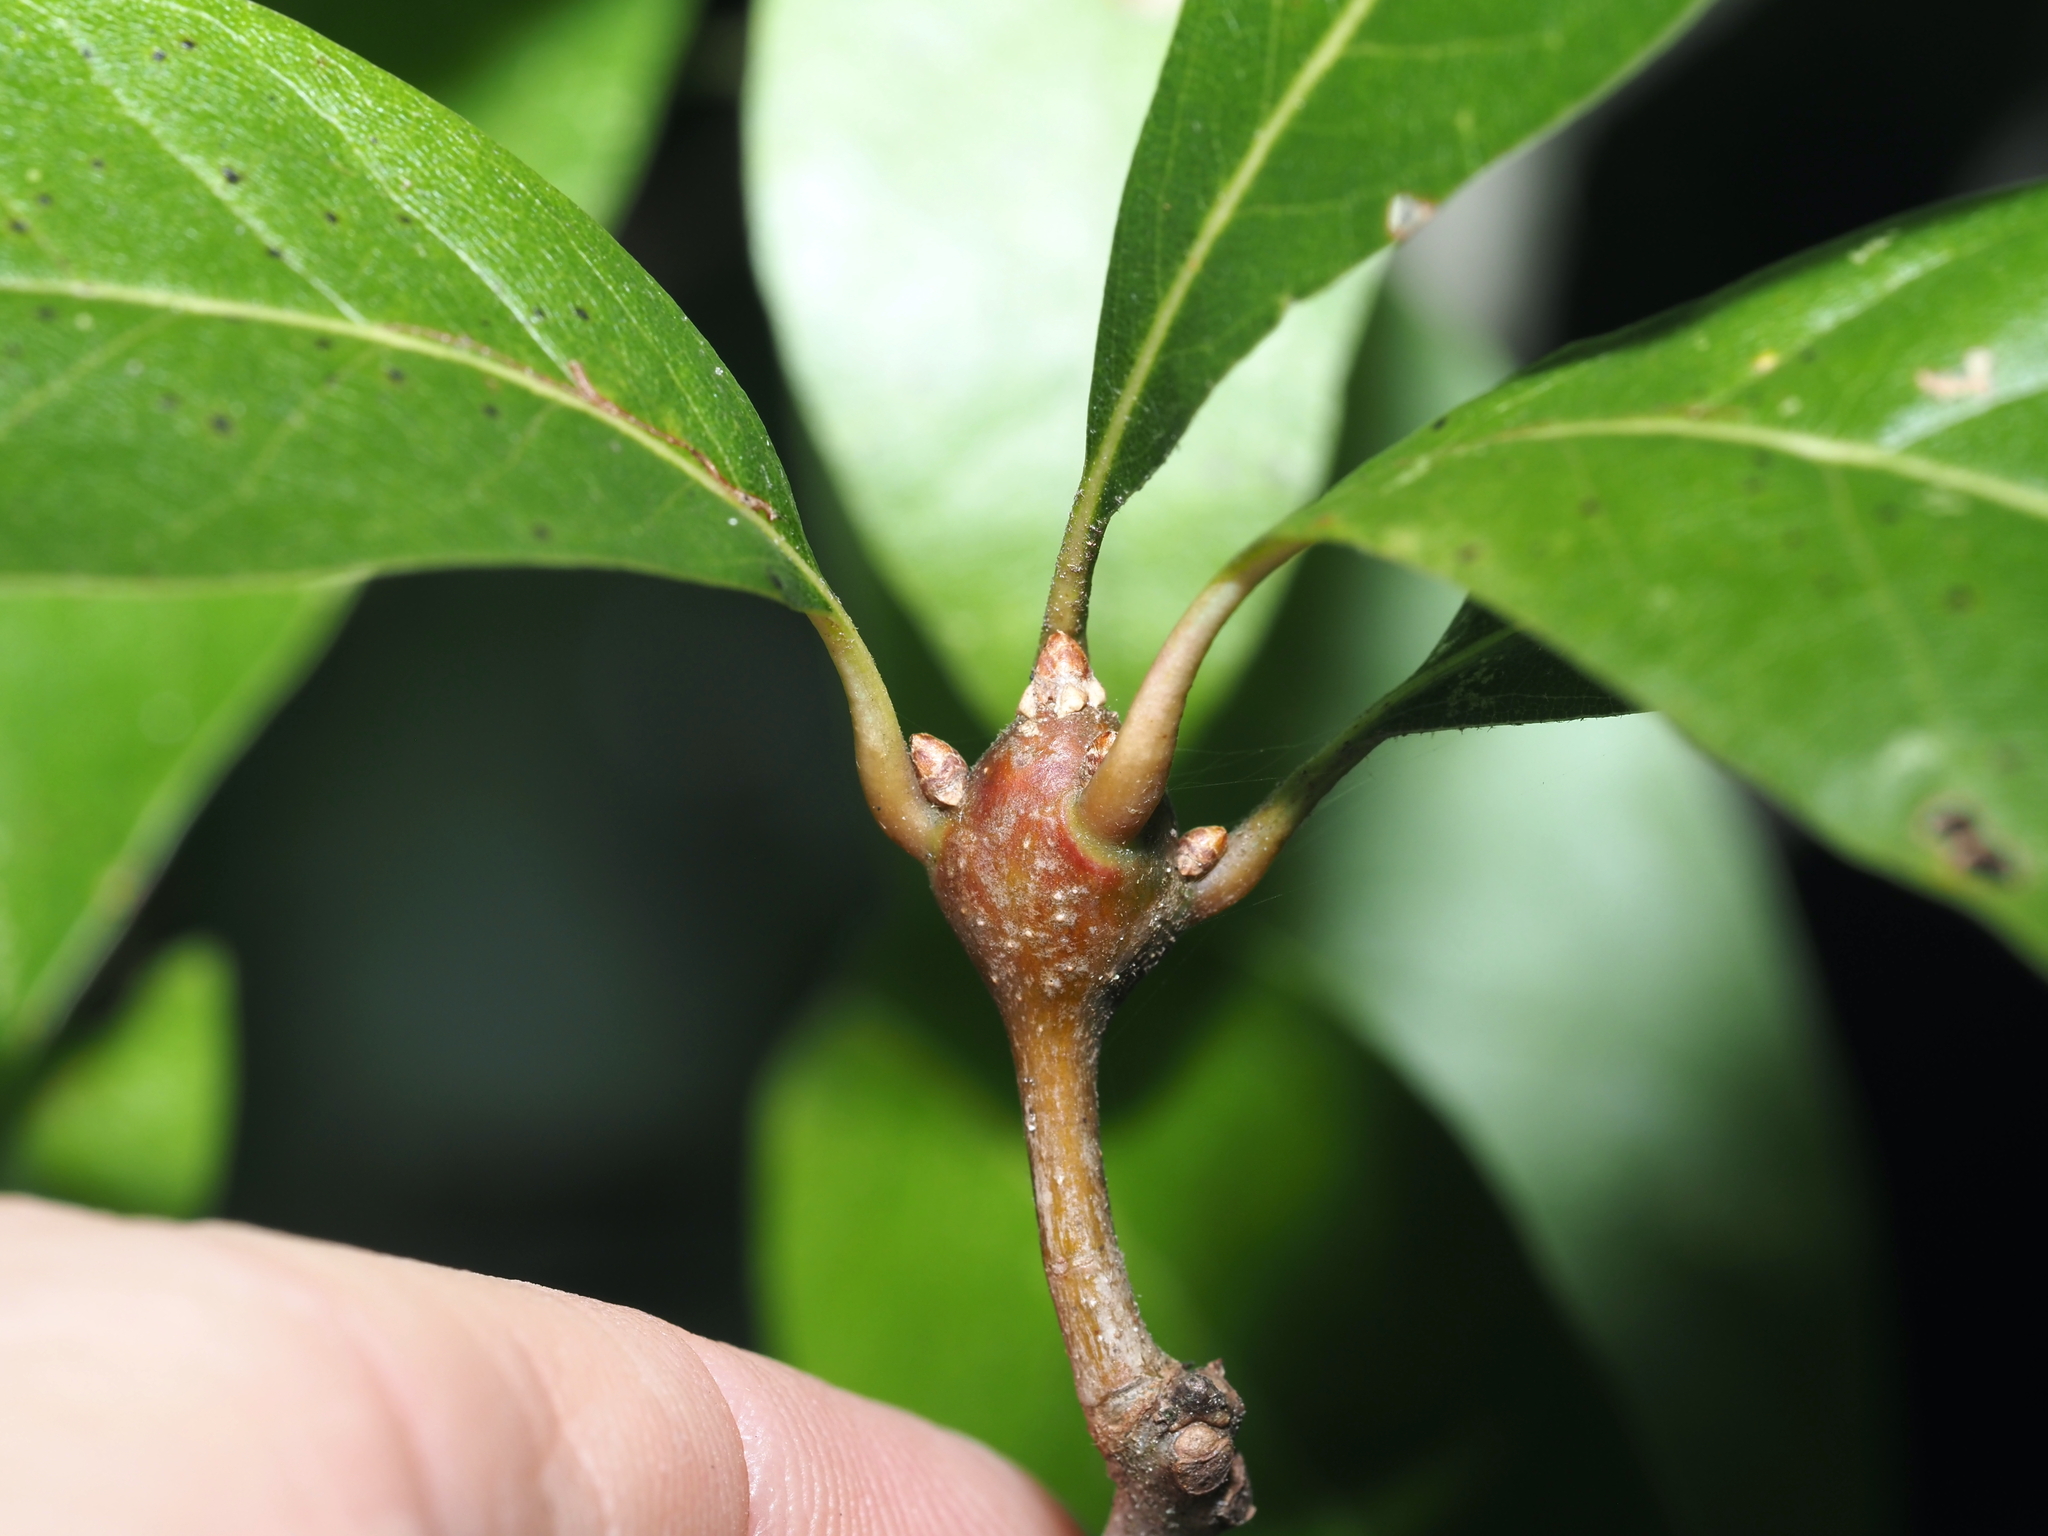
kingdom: Animalia
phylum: Arthropoda
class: Insecta
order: Hymenoptera
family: Cynipidae
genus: Zapatella
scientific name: Zapatella quercusphellos
